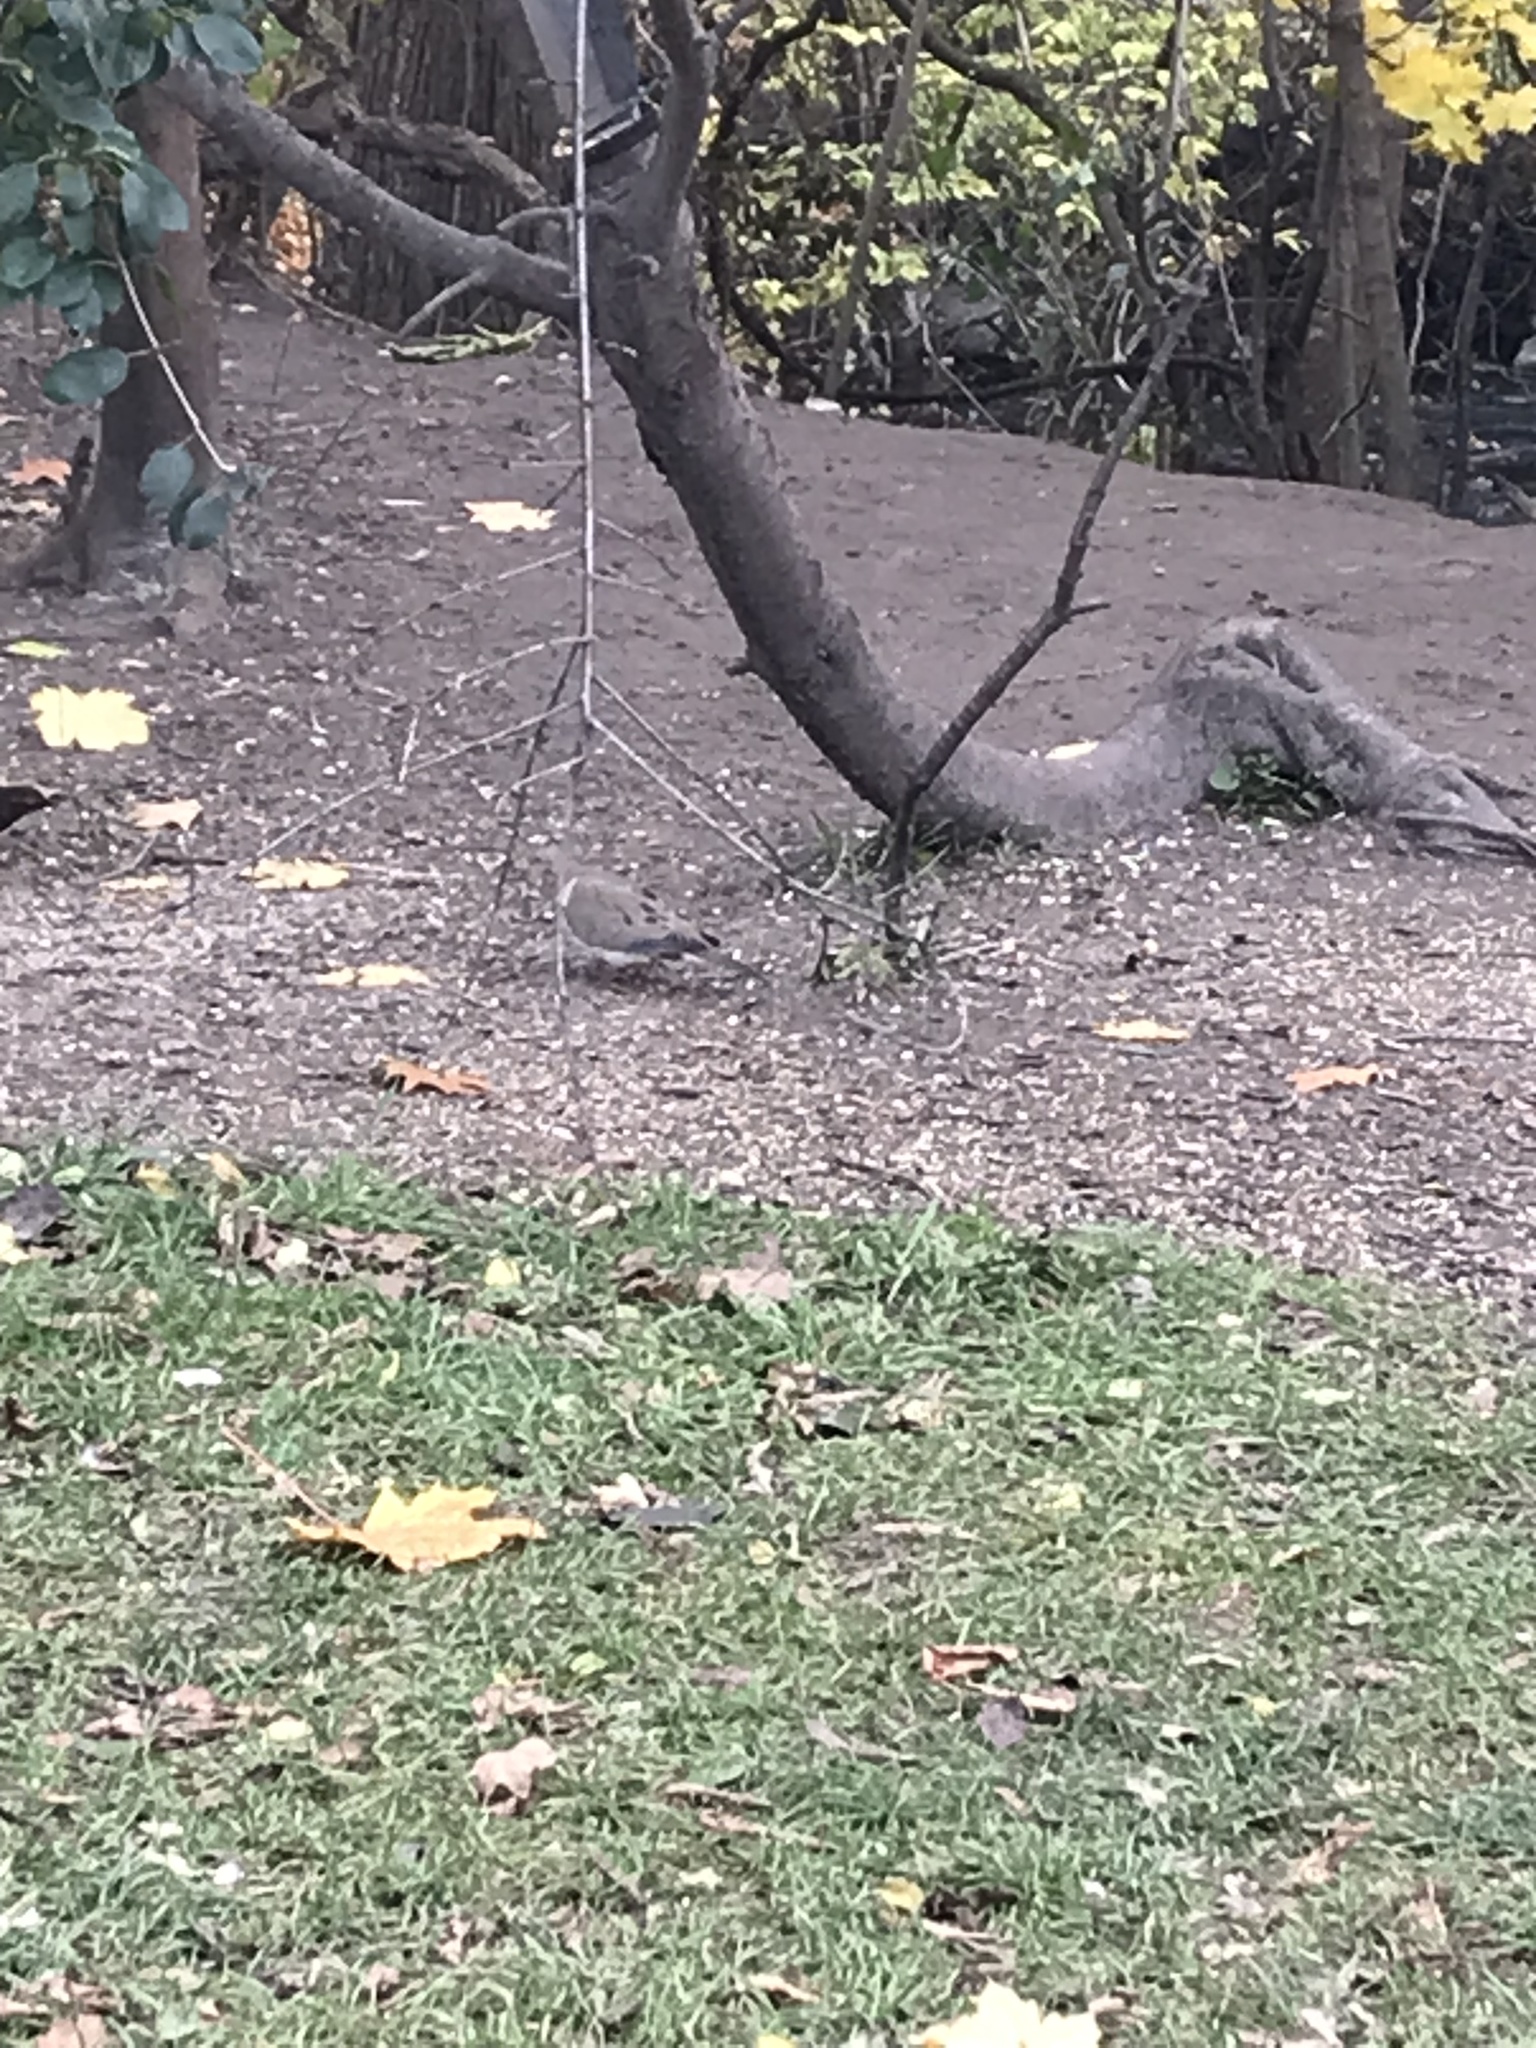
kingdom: Animalia
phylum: Chordata
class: Aves
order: Columbiformes
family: Columbidae
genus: Zenaida
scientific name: Zenaida macroura
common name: Mourning dove
